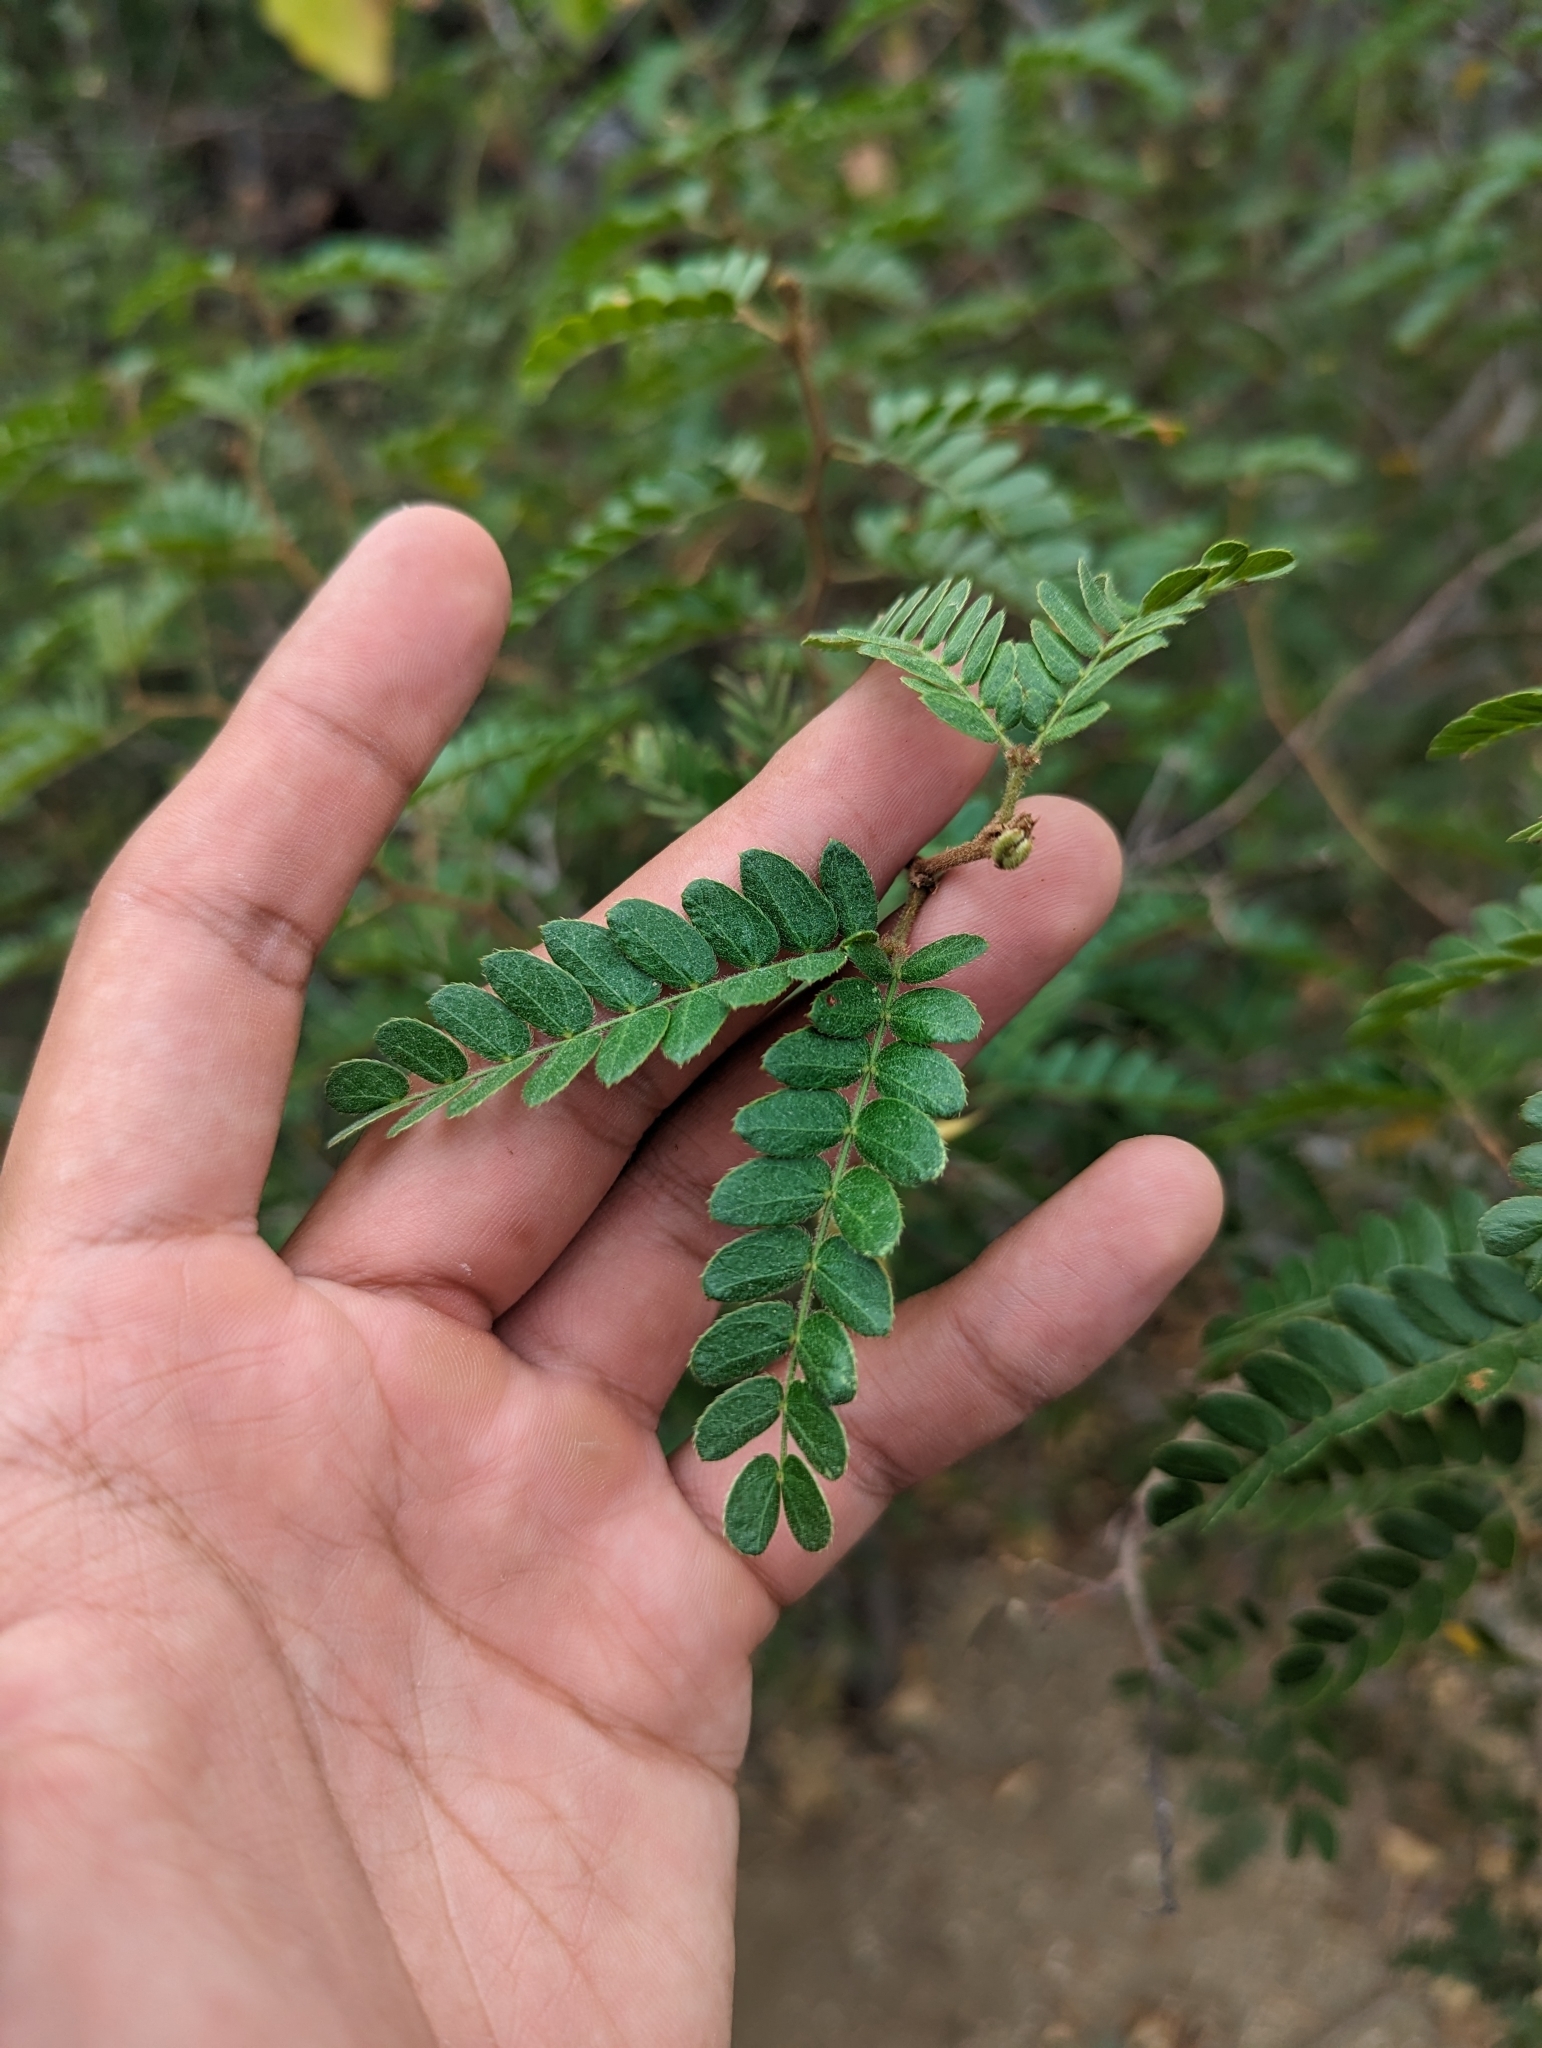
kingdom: Plantae
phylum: Tracheophyta
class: Magnoliopsida
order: Fabales
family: Fabaceae
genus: Mimosa
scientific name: Mimosa tricephala
